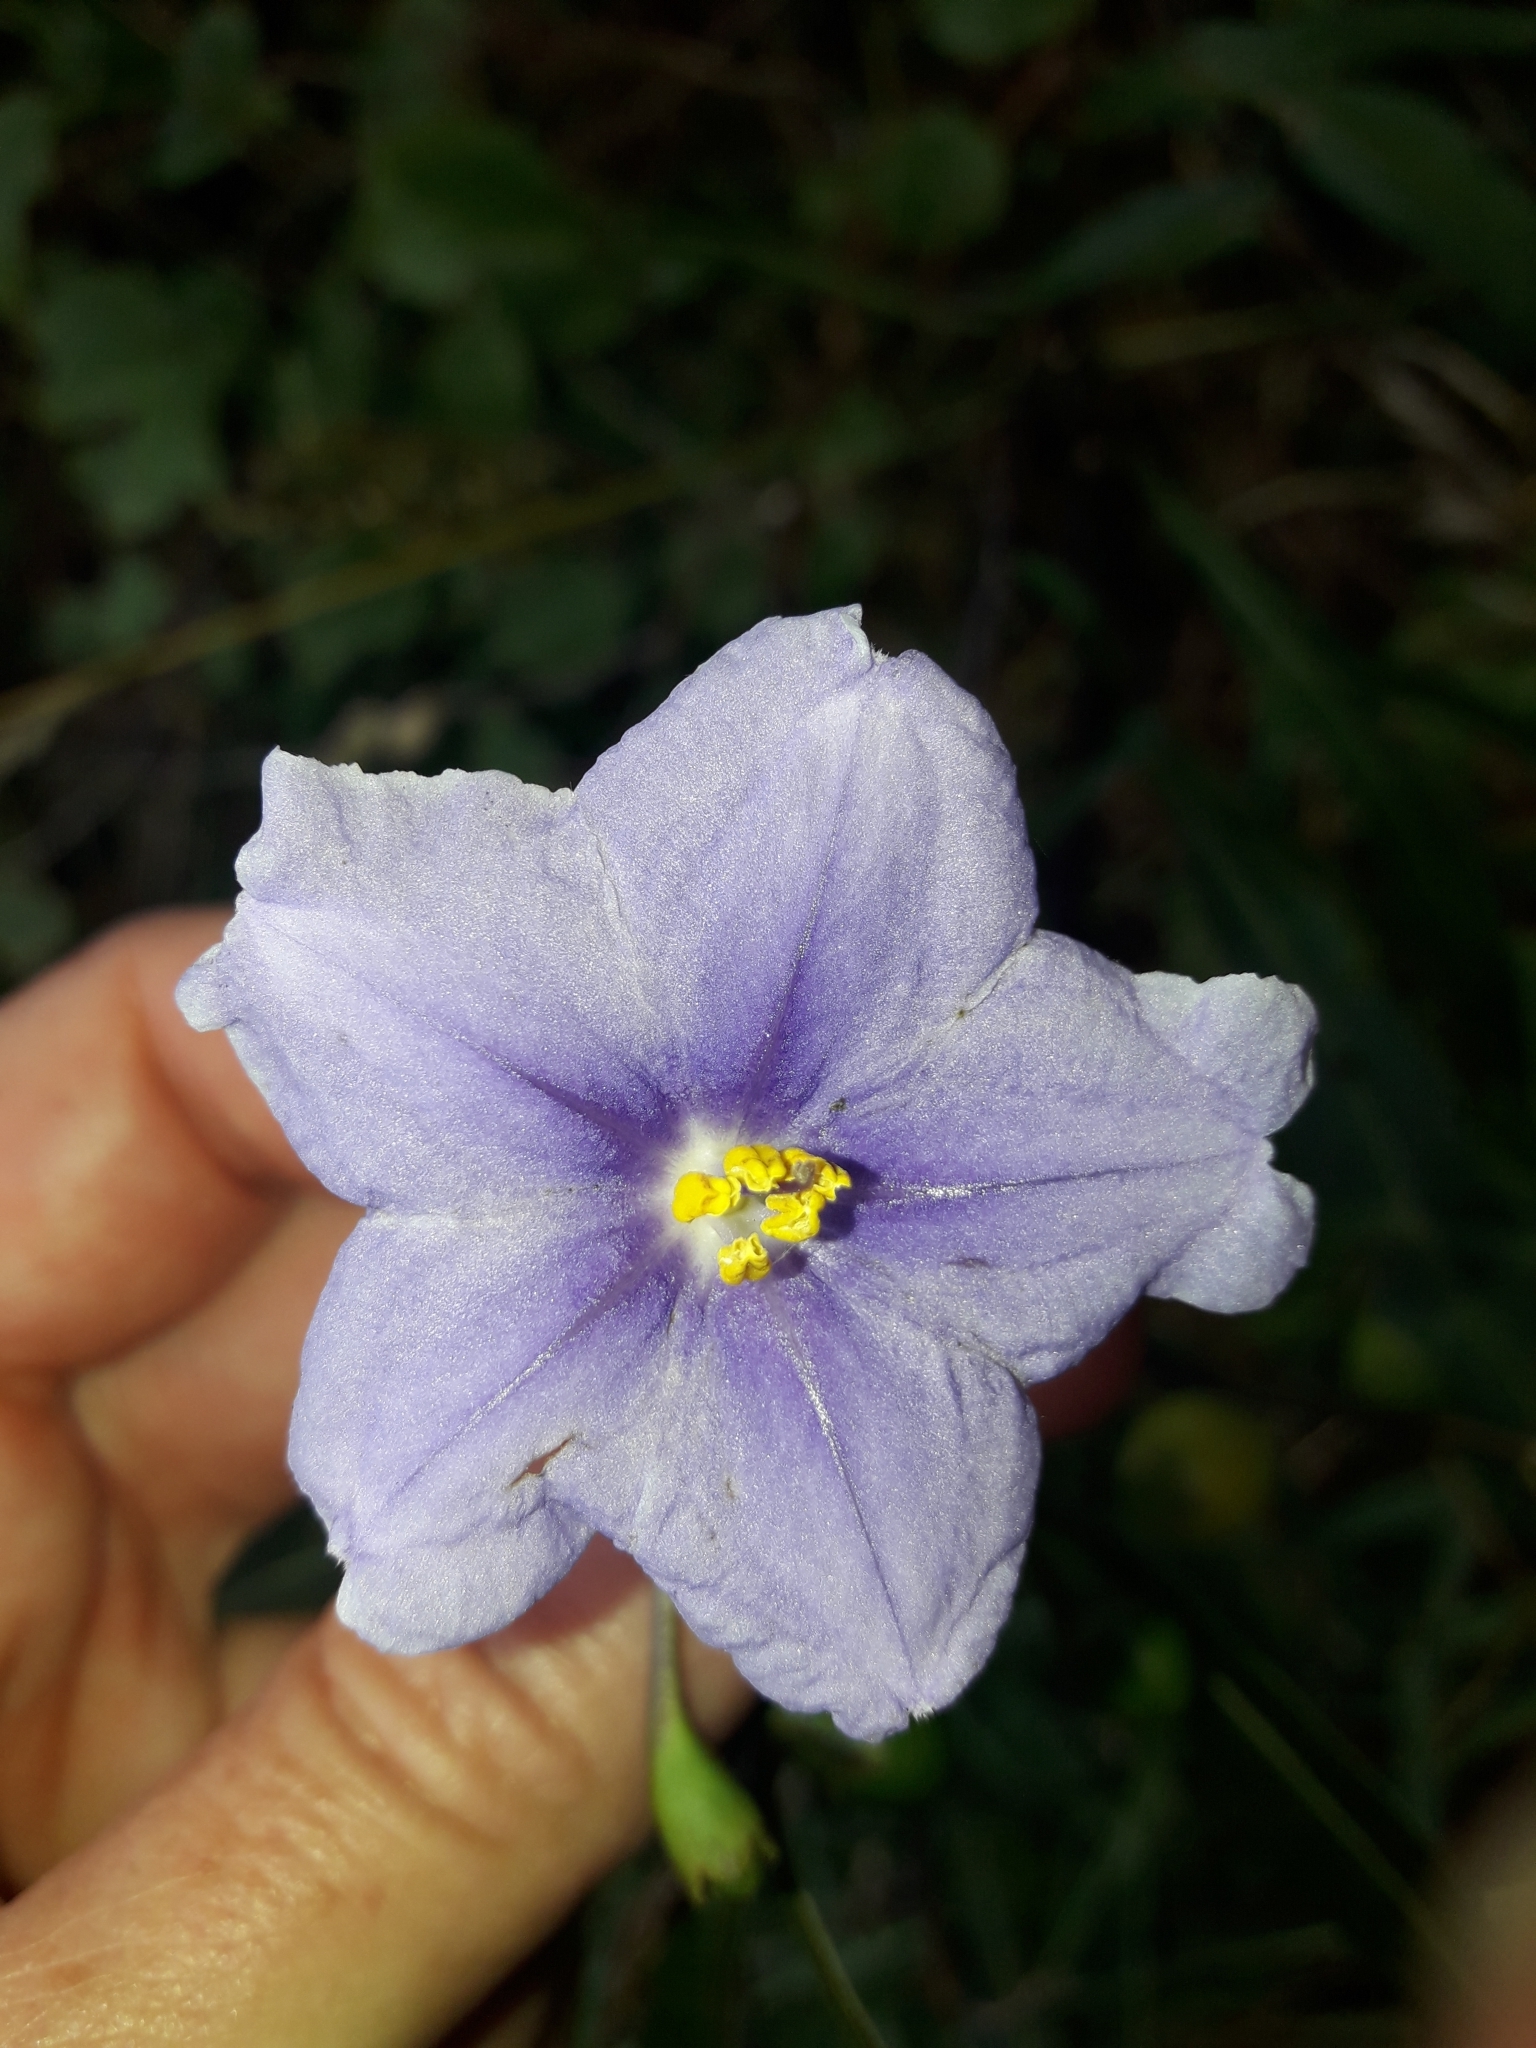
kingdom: Plantae
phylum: Tracheophyta
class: Magnoliopsida
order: Solanales
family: Solanaceae
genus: Solanum
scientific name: Solanum laciniatum
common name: Kangaroo-apple
